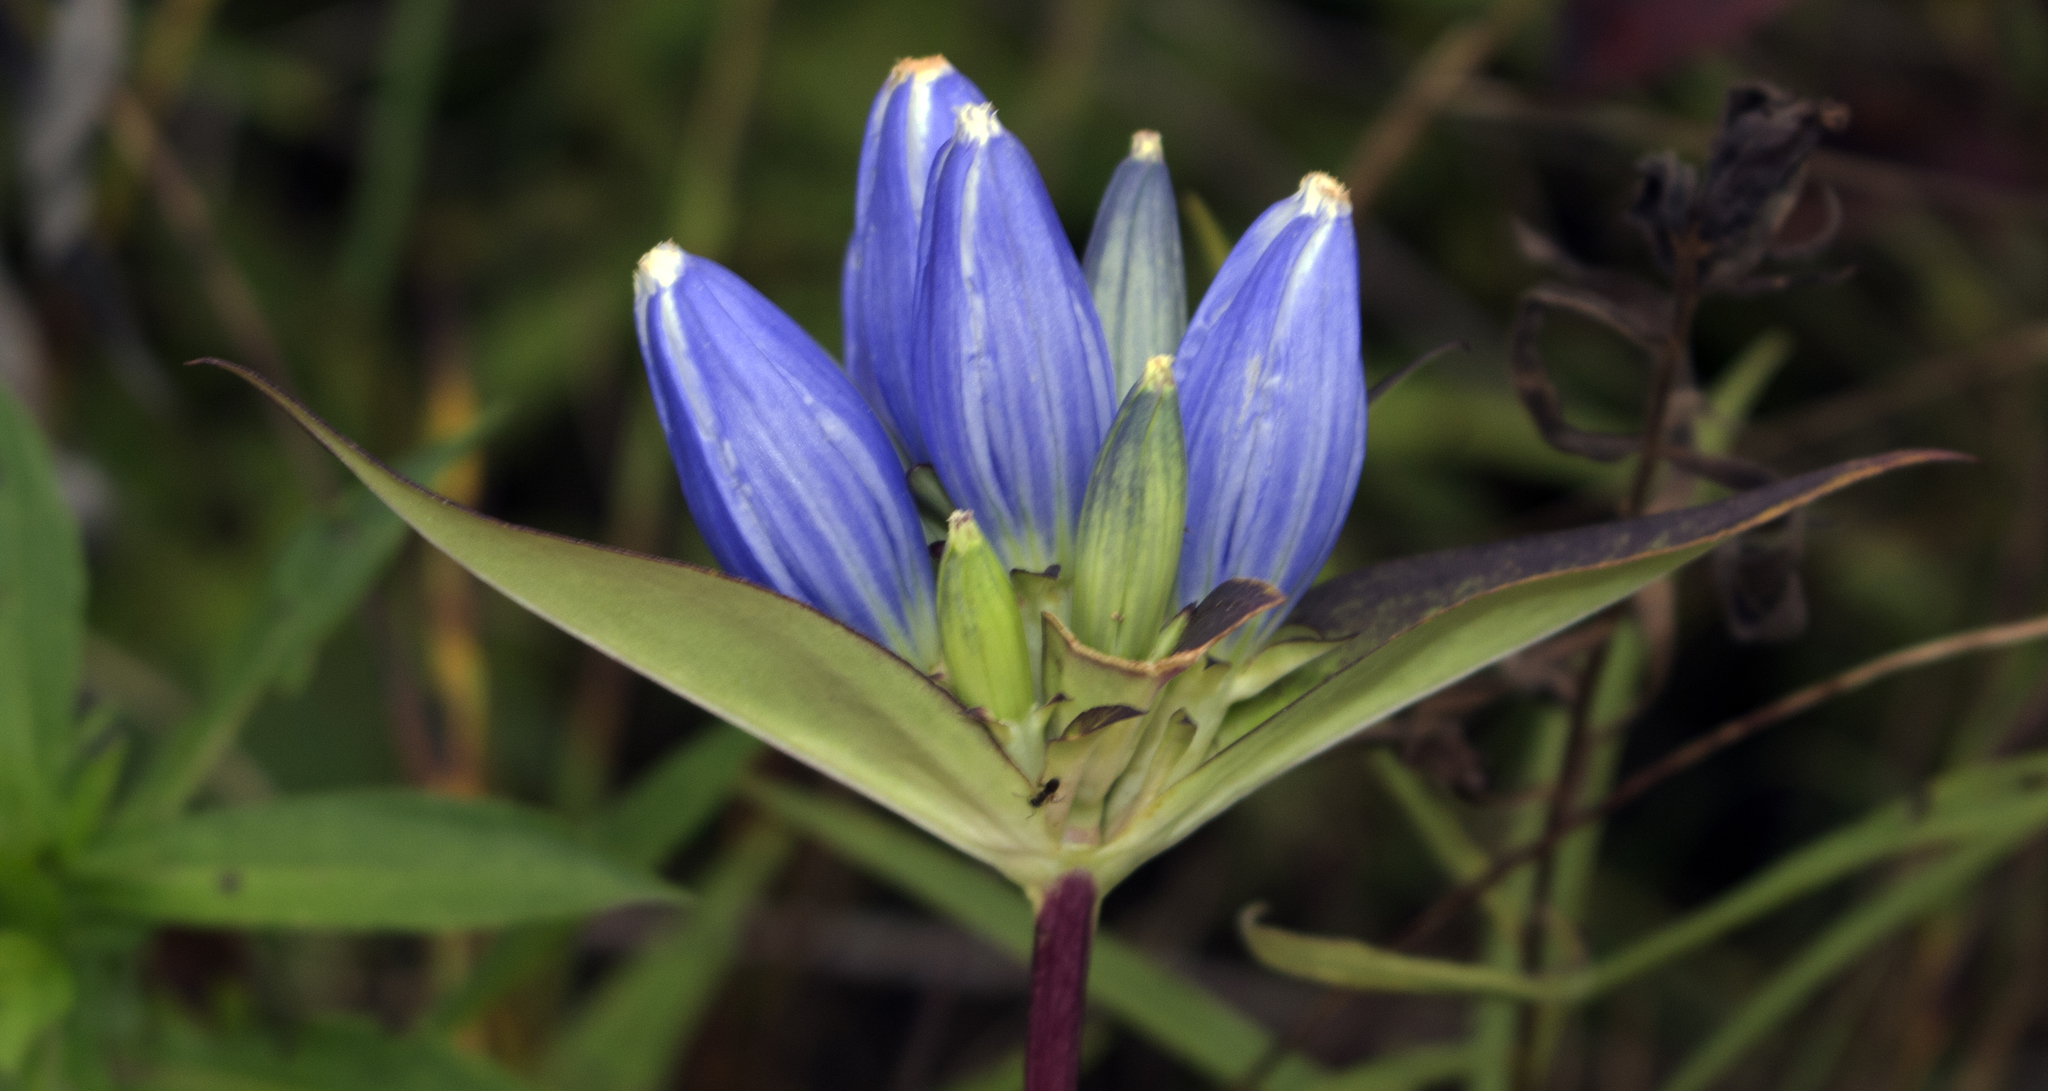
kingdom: Plantae
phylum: Tracheophyta
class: Magnoliopsida
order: Gentianales
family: Gentianaceae
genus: Gentiana
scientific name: Gentiana andrewsii
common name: Bottle gentian
